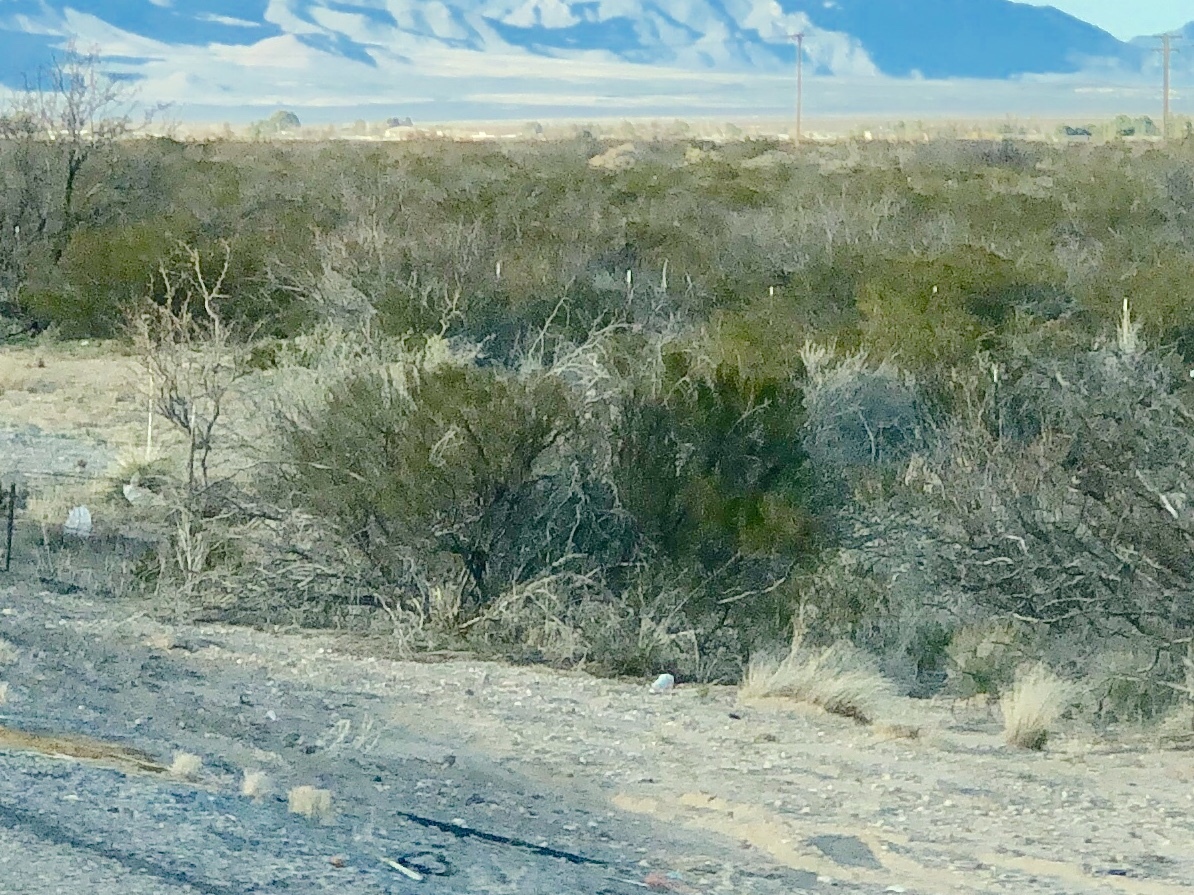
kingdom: Plantae
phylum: Tracheophyta
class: Magnoliopsida
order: Zygophyllales
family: Zygophyllaceae
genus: Larrea
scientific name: Larrea tridentata
